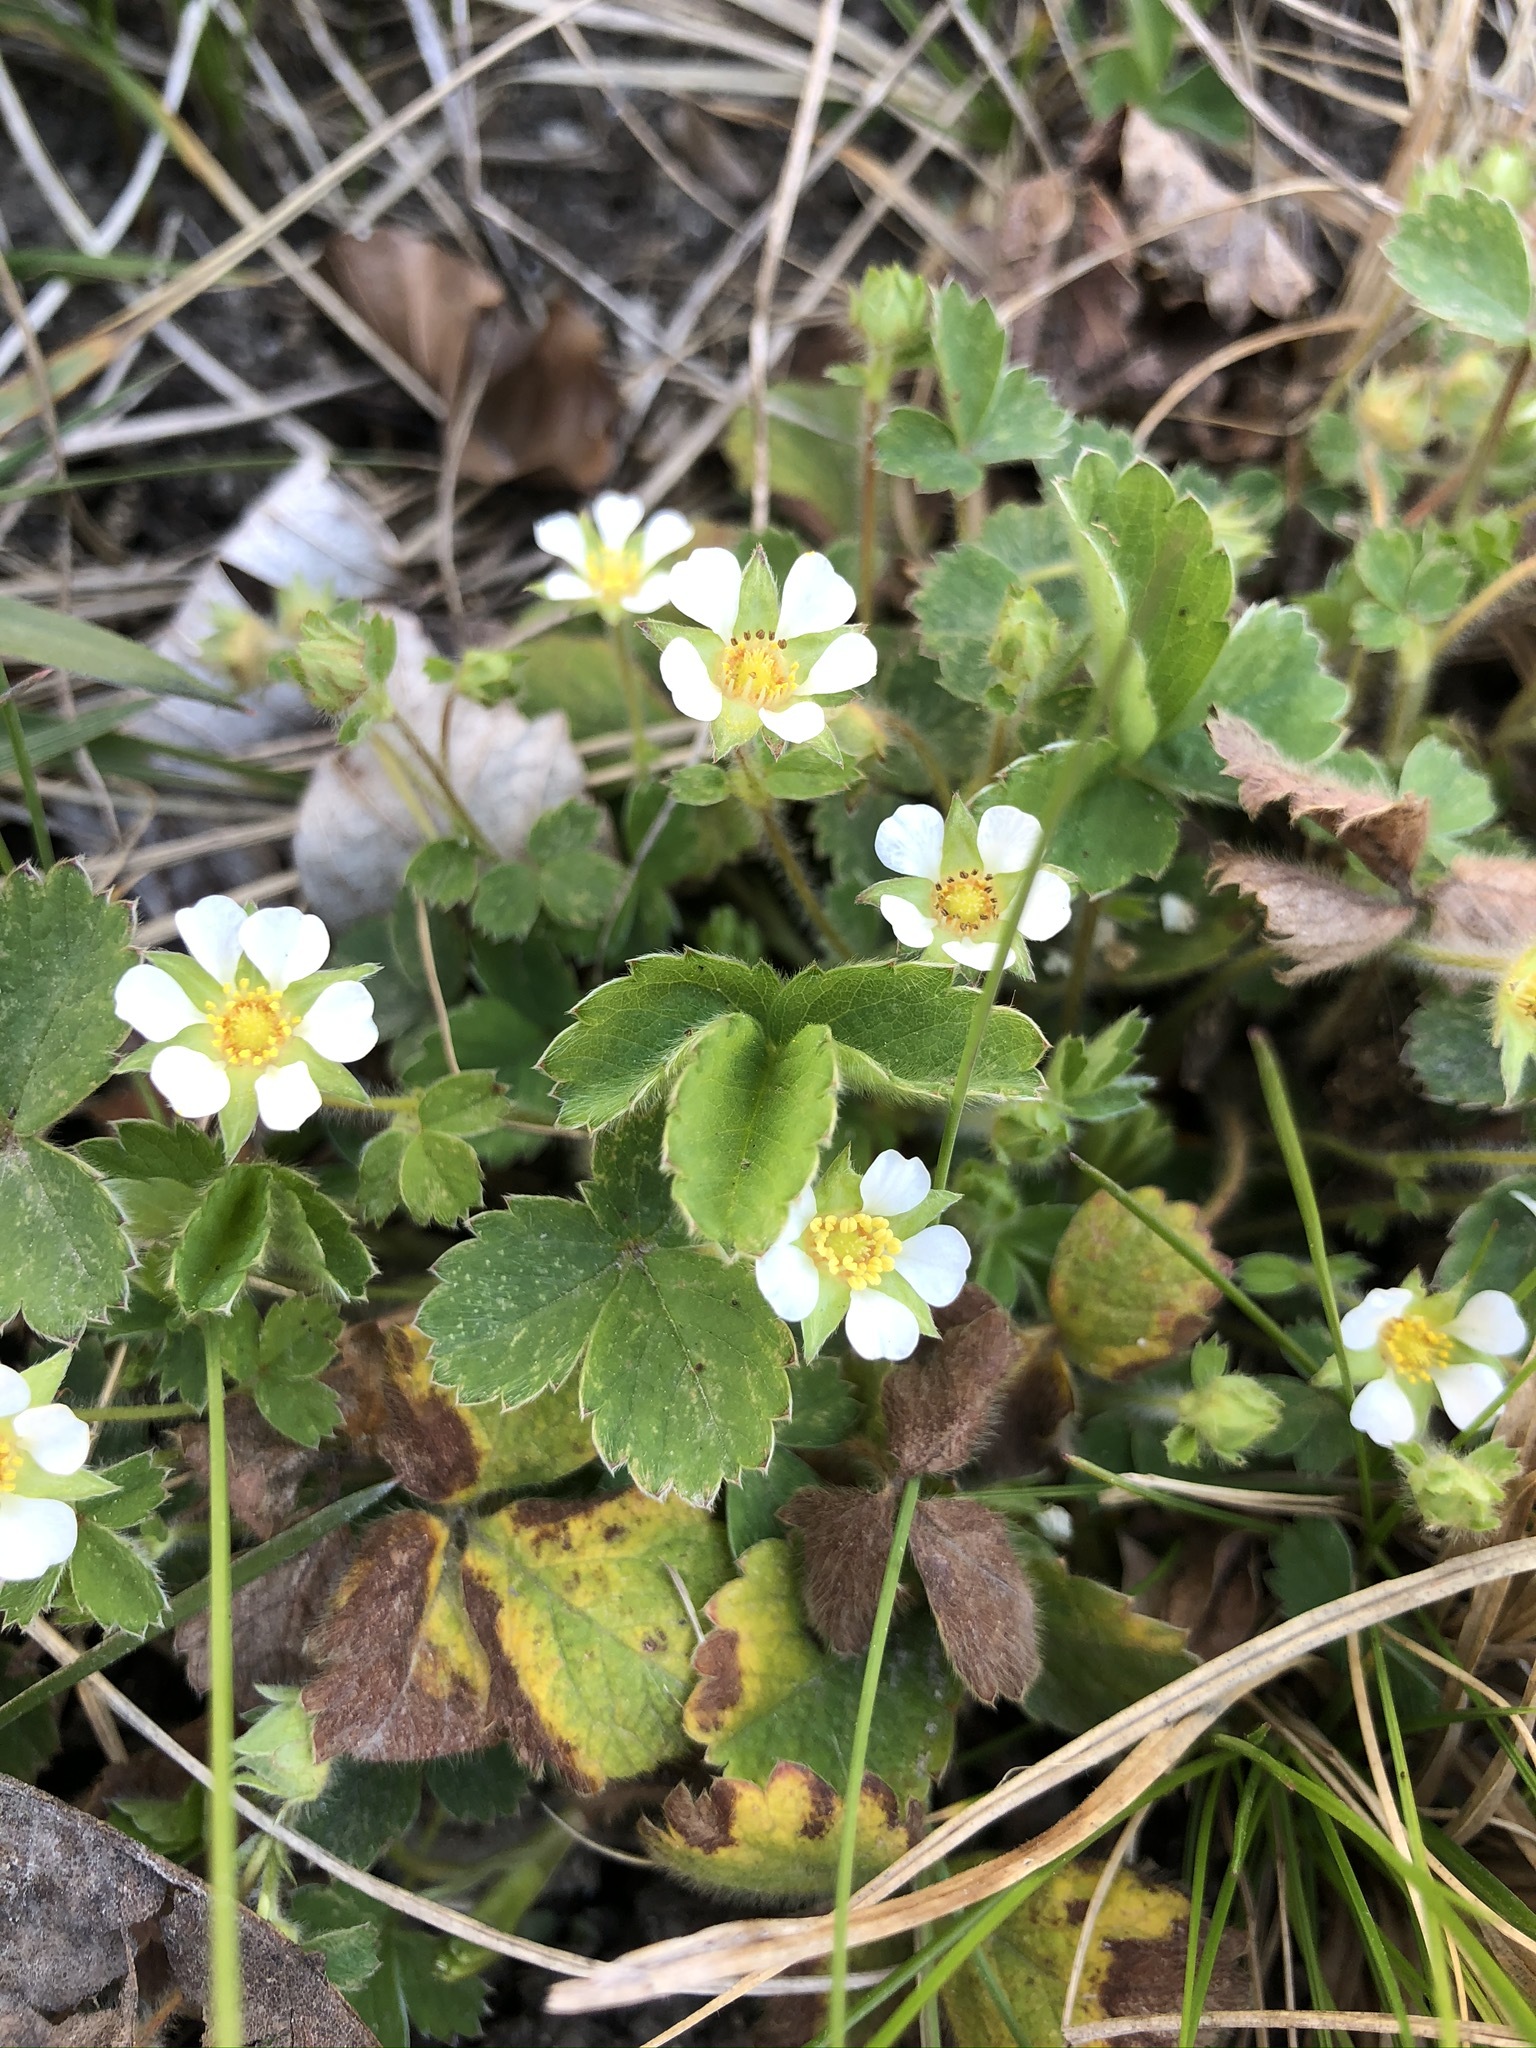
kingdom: Plantae
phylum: Tracheophyta
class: Magnoliopsida
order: Rosales
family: Rosaceae
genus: Potentilla
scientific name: Potentilla sterilis
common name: Barren strawberry
